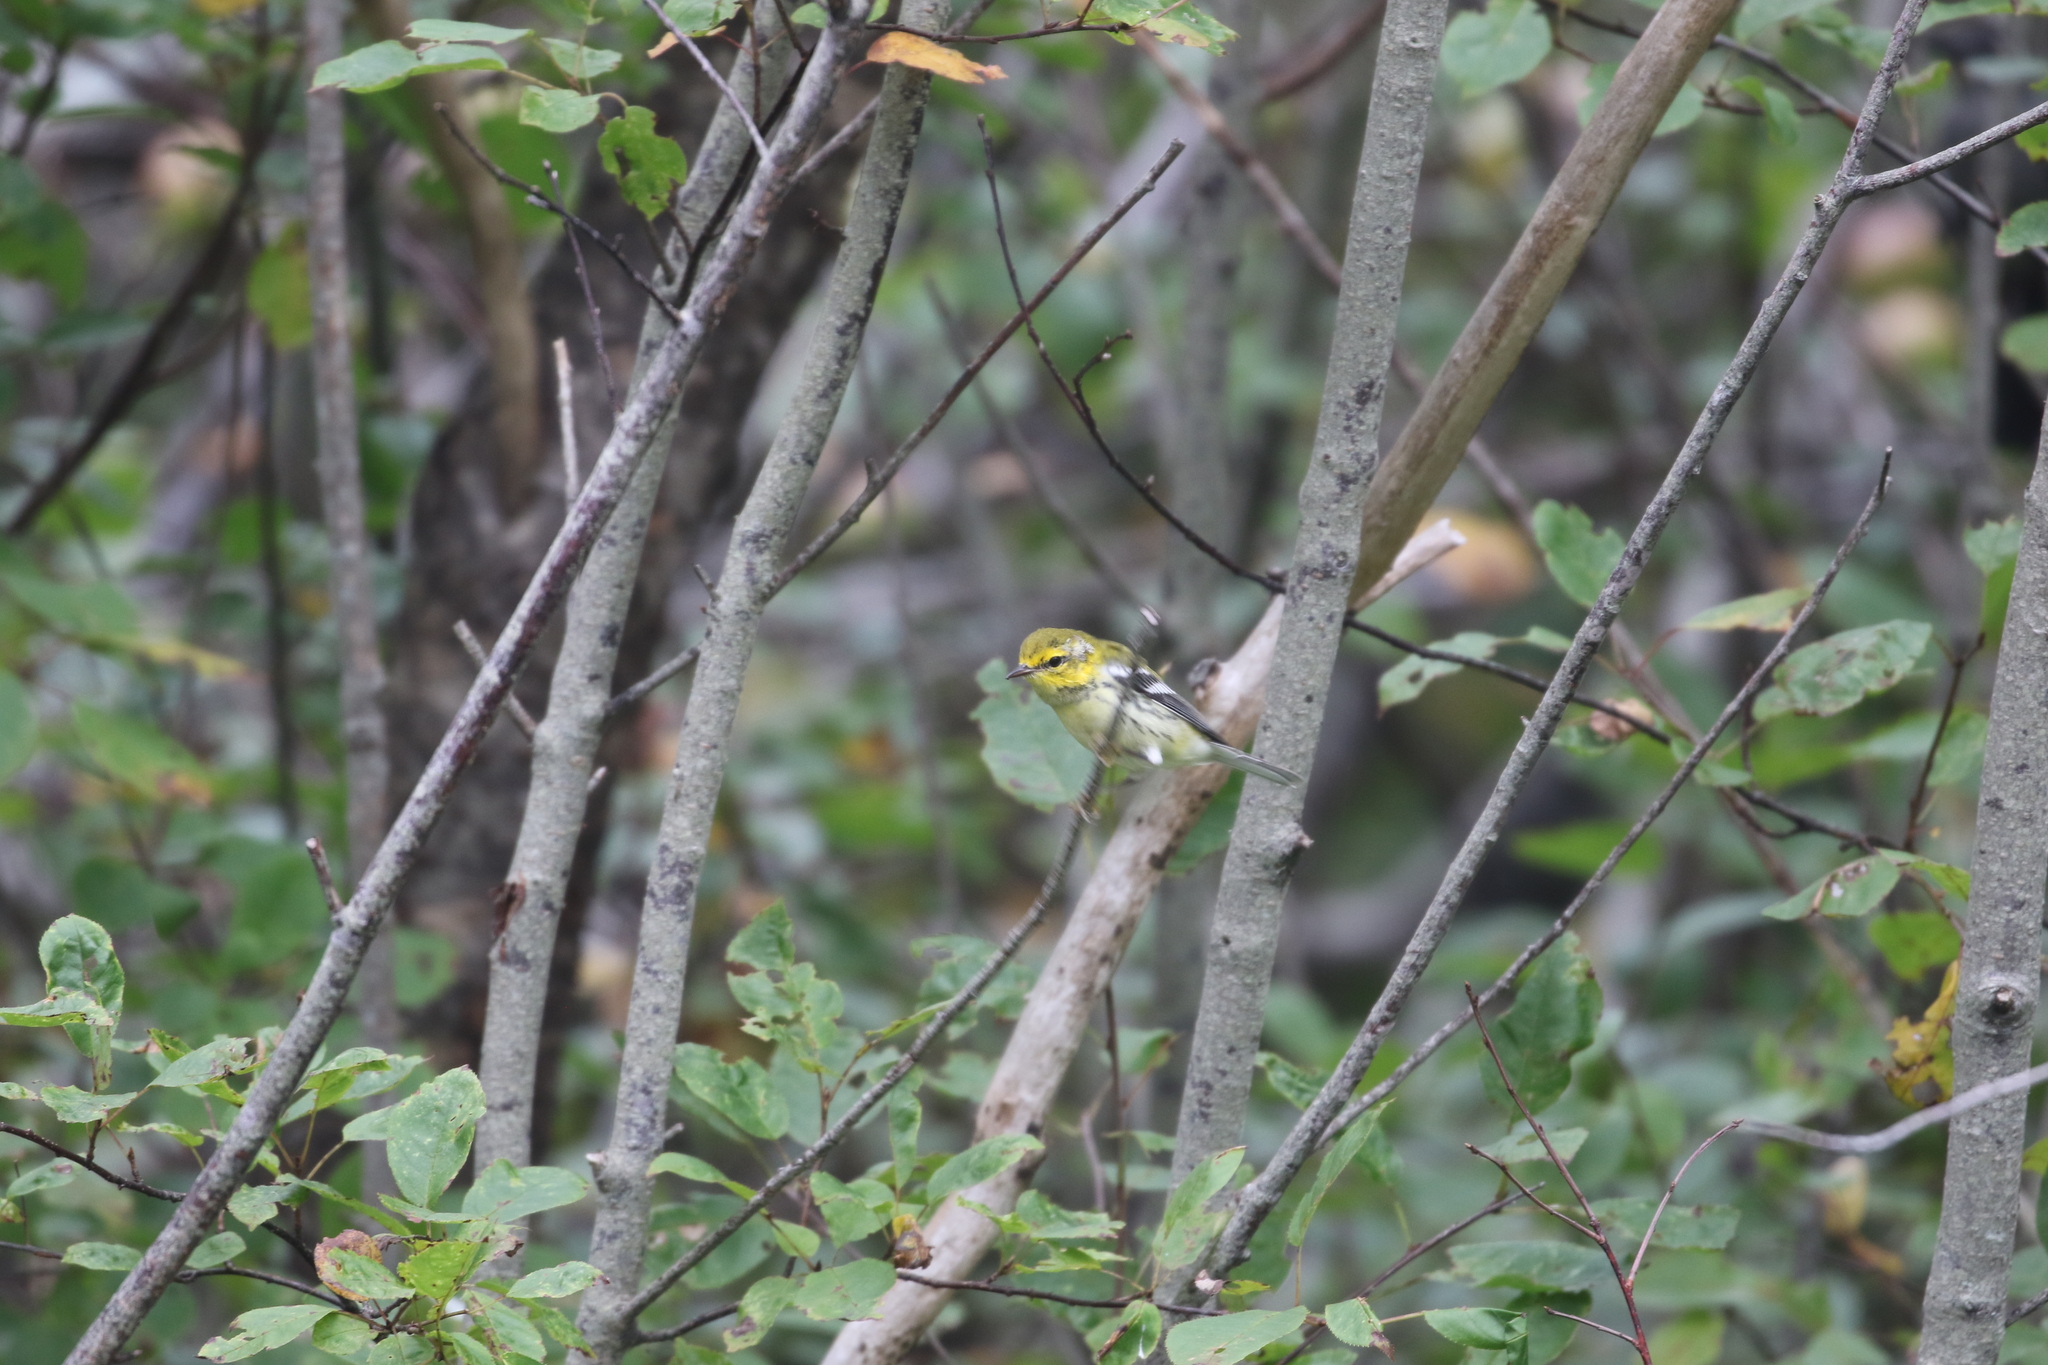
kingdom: Animalia
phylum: Chordata
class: Aves
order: Passeriformes
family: Parulidae
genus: Setophaga
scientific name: Setophaga virens
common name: Black-throated green warbler
